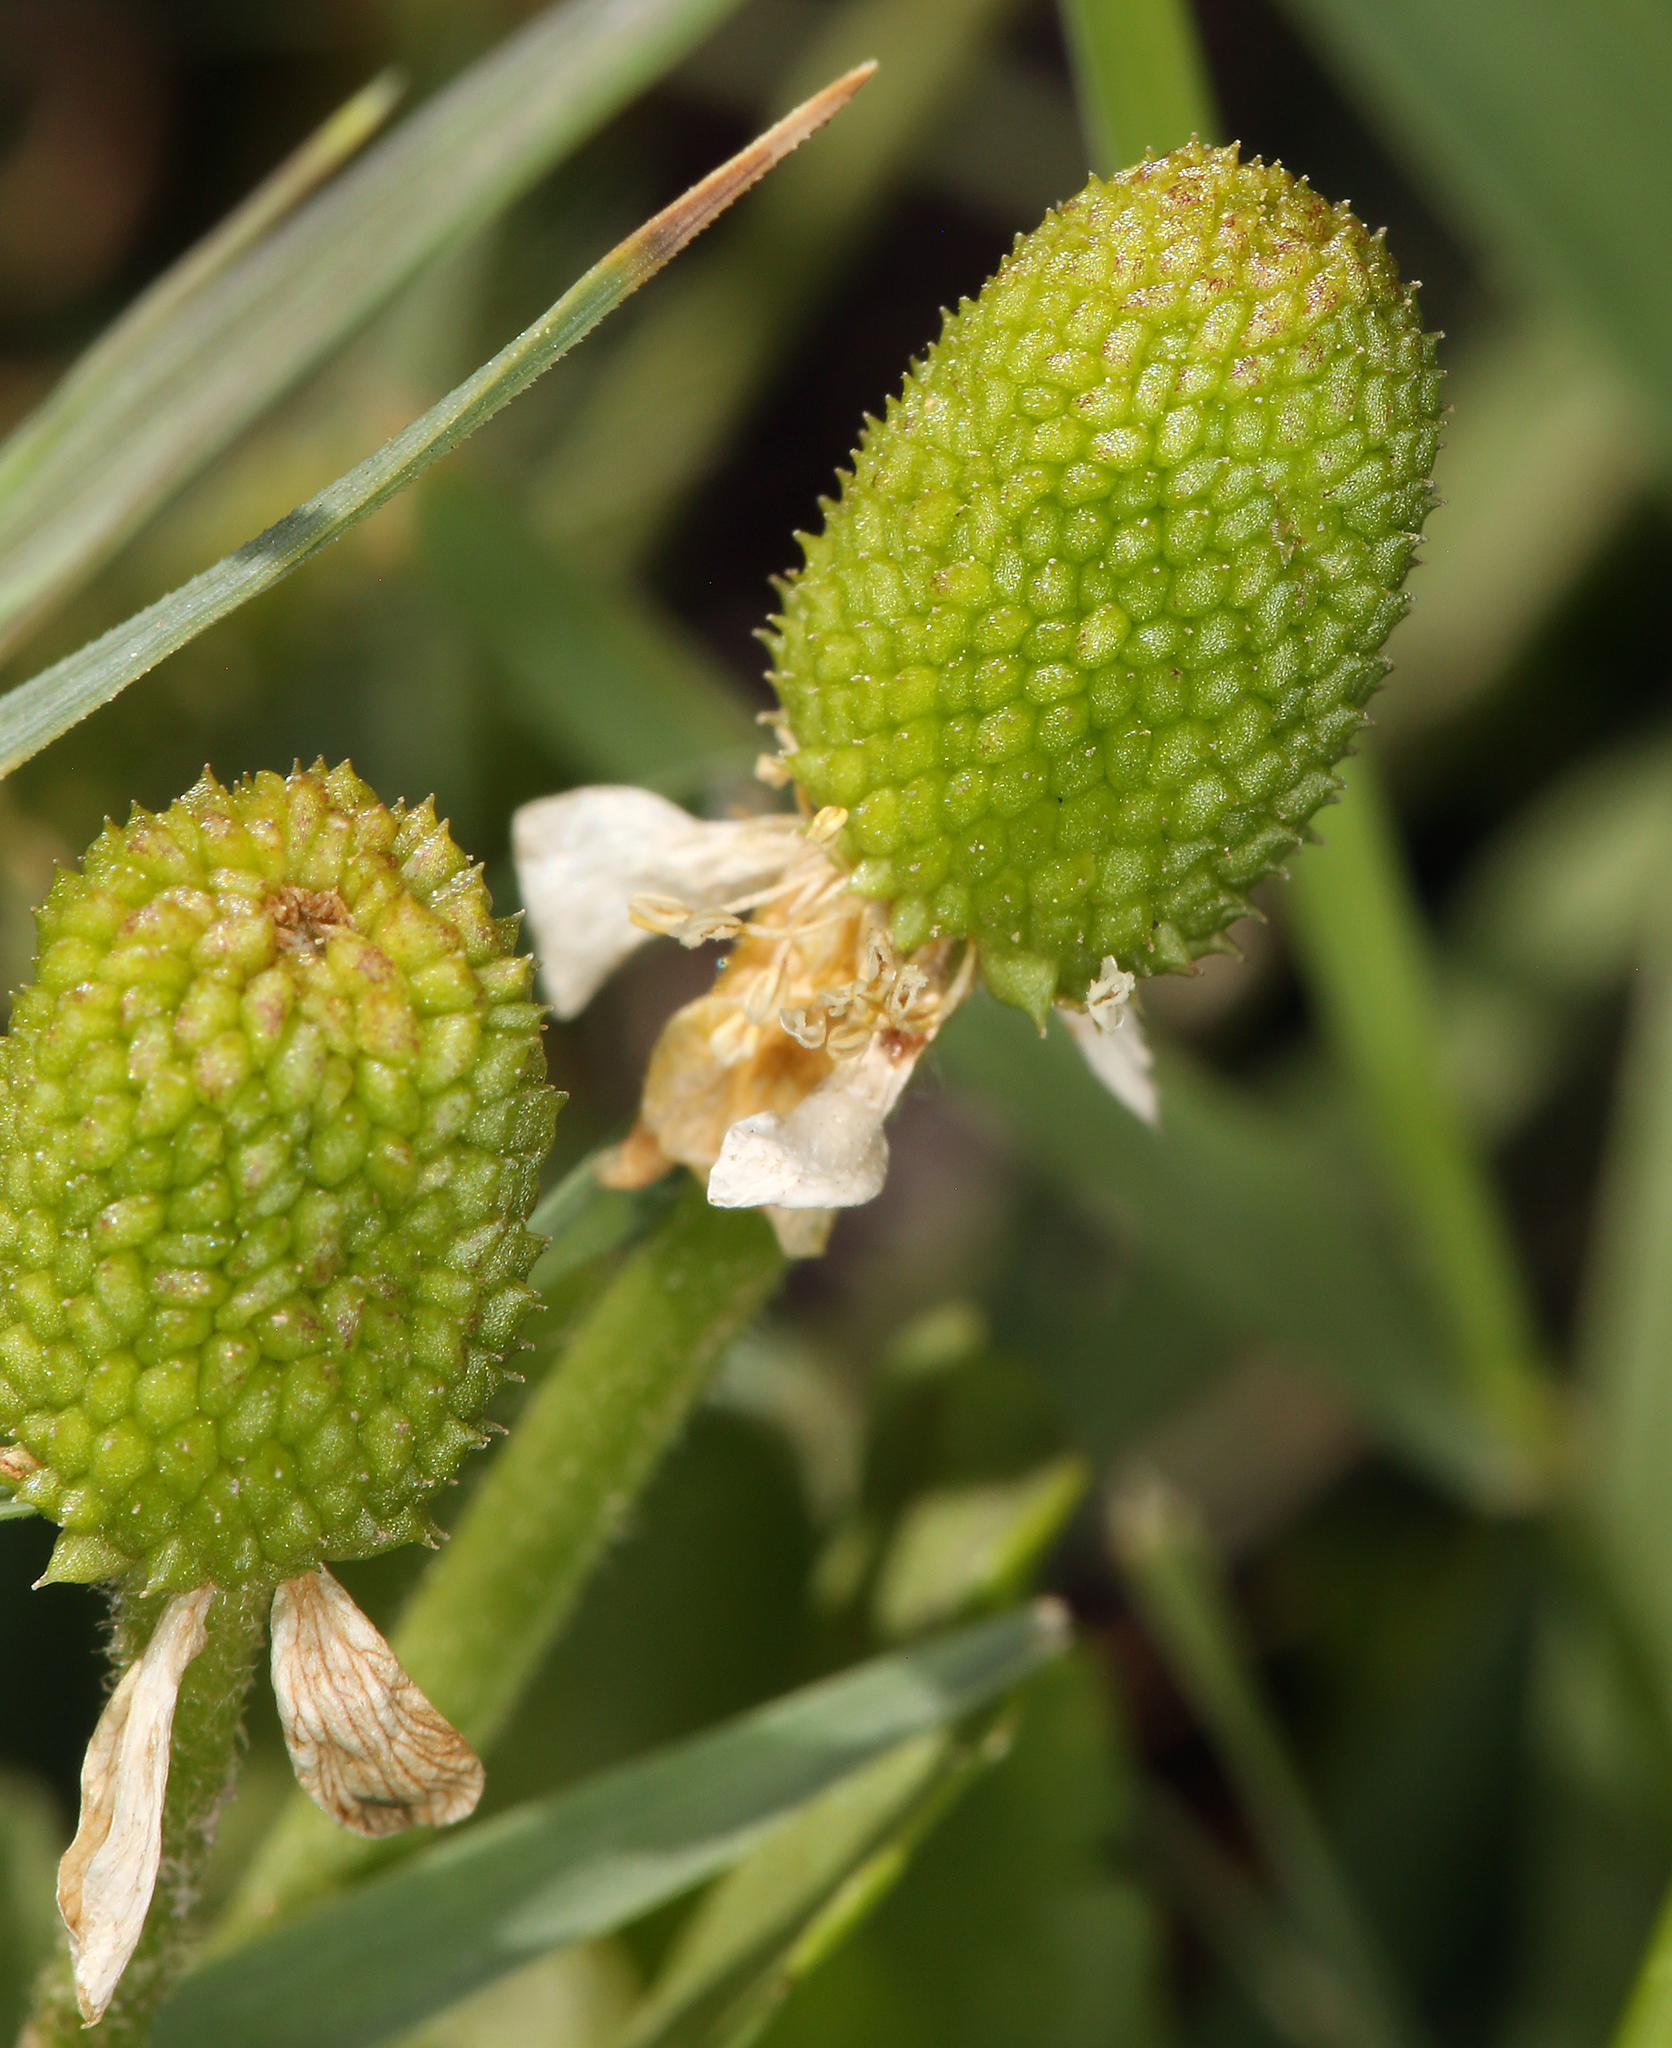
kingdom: Plantae
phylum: Tracheophyta
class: Magnoliopsida
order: Ranunculales
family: Ranunculaceae
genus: Halerpestes
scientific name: Halerpestes cymbalaria
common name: Seaside crowfoot
